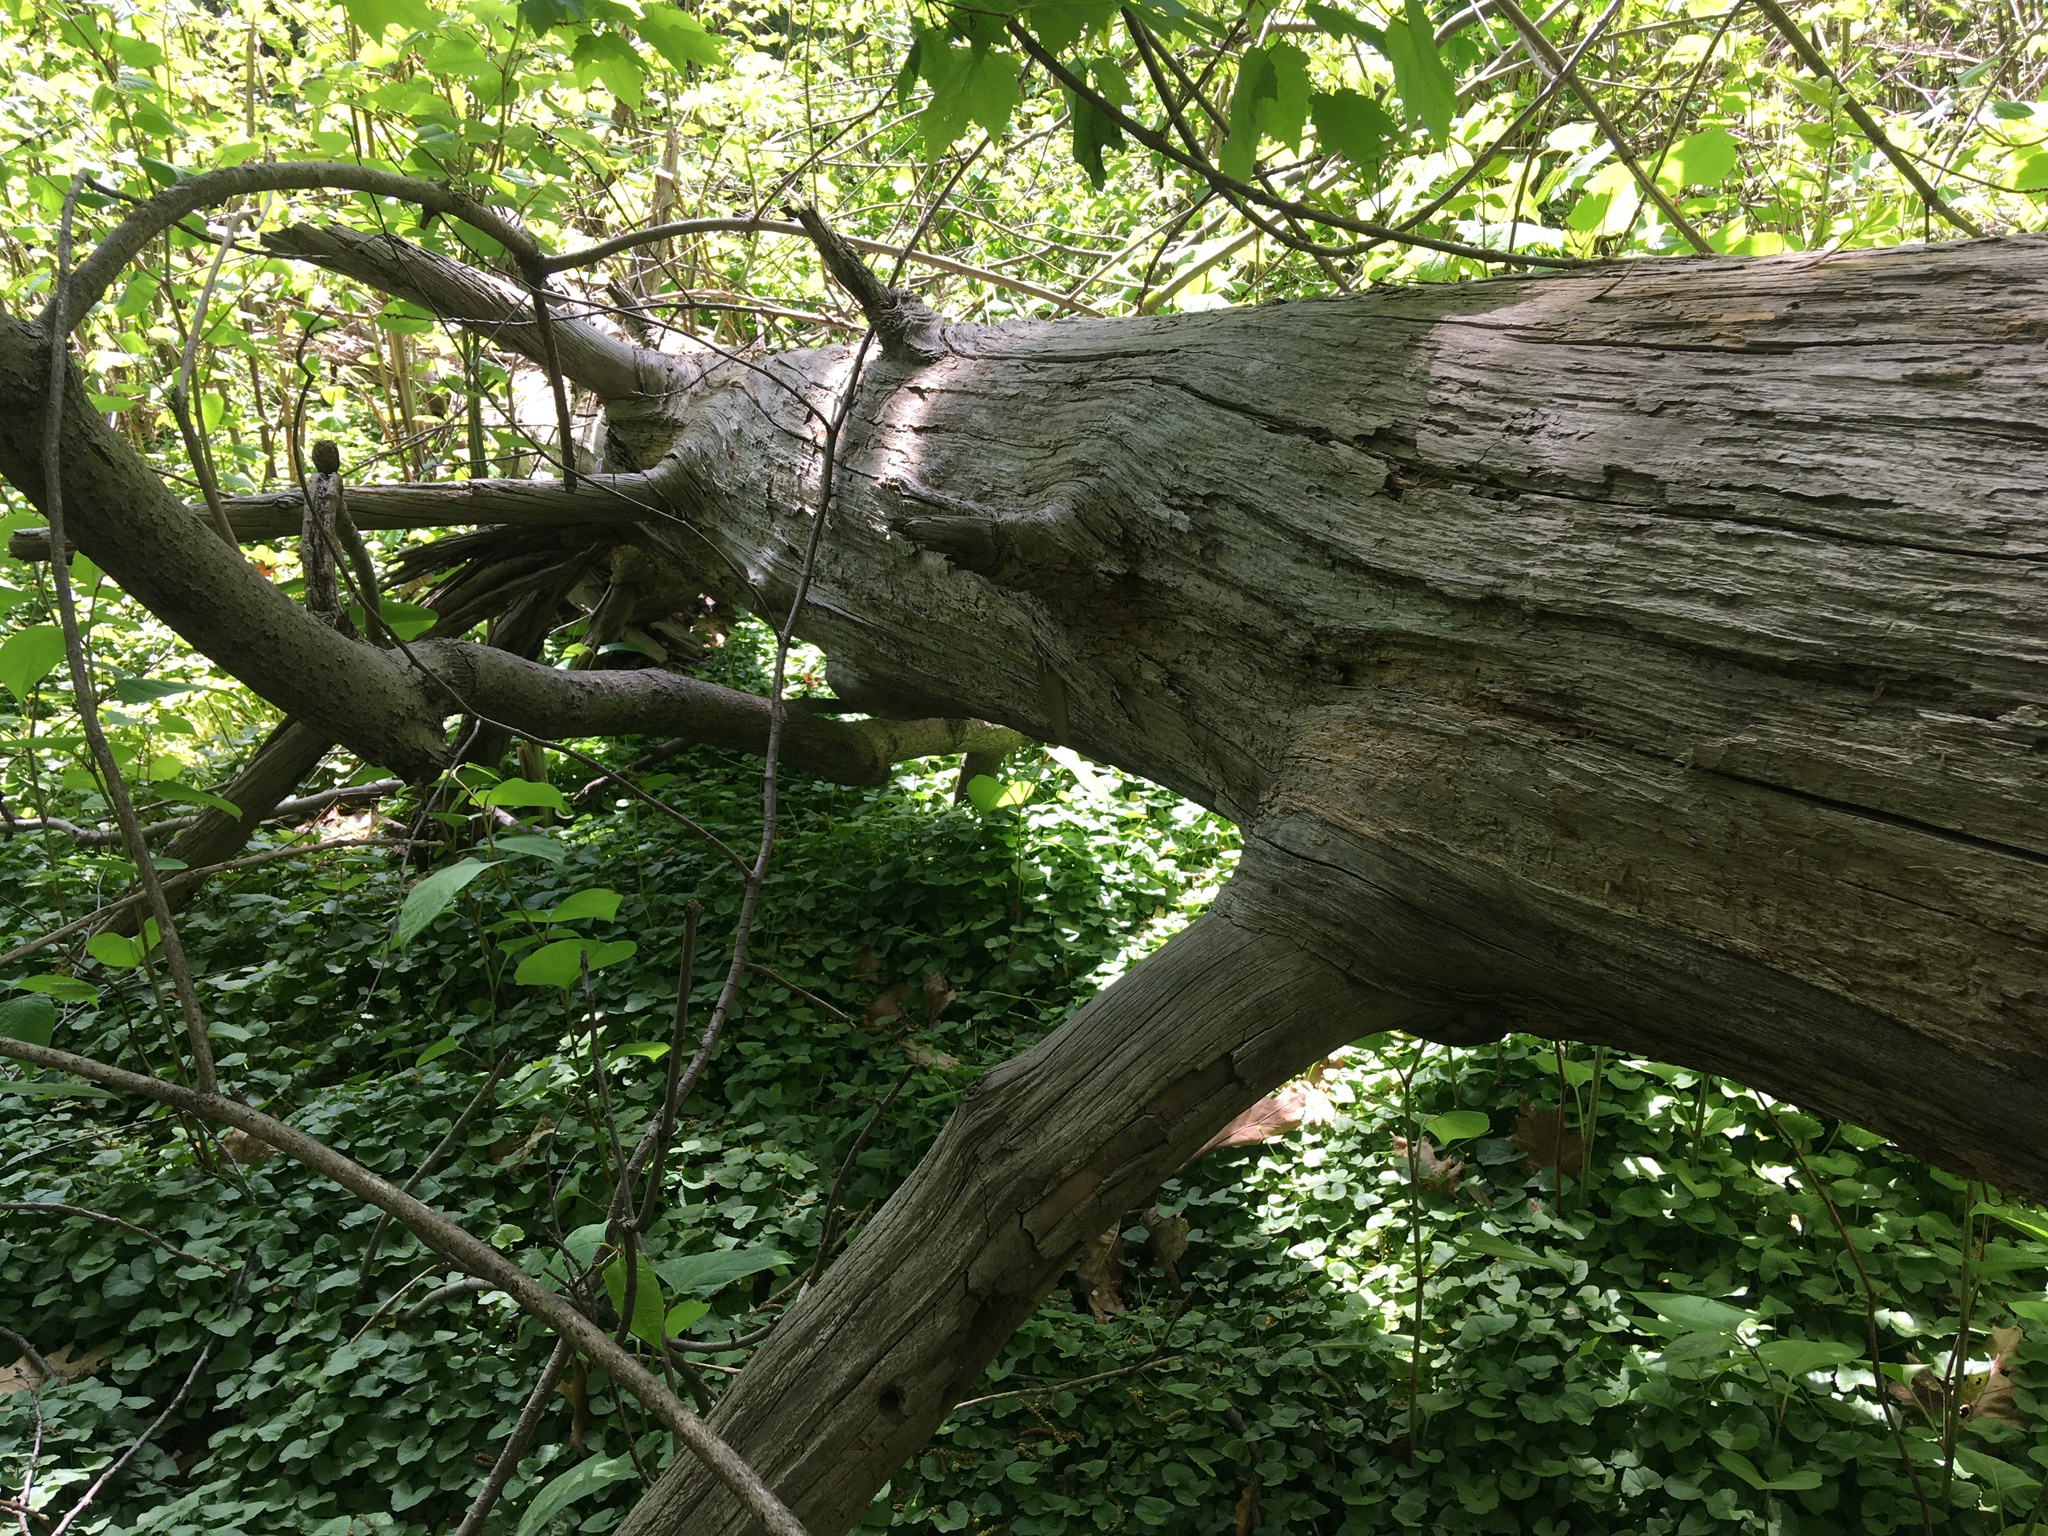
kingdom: Plantae
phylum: Tracheophyta
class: Pinopsida
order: Pinales
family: Pinaceae
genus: Tsuga
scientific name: Tsuga canadensis
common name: Eastern hemlock
